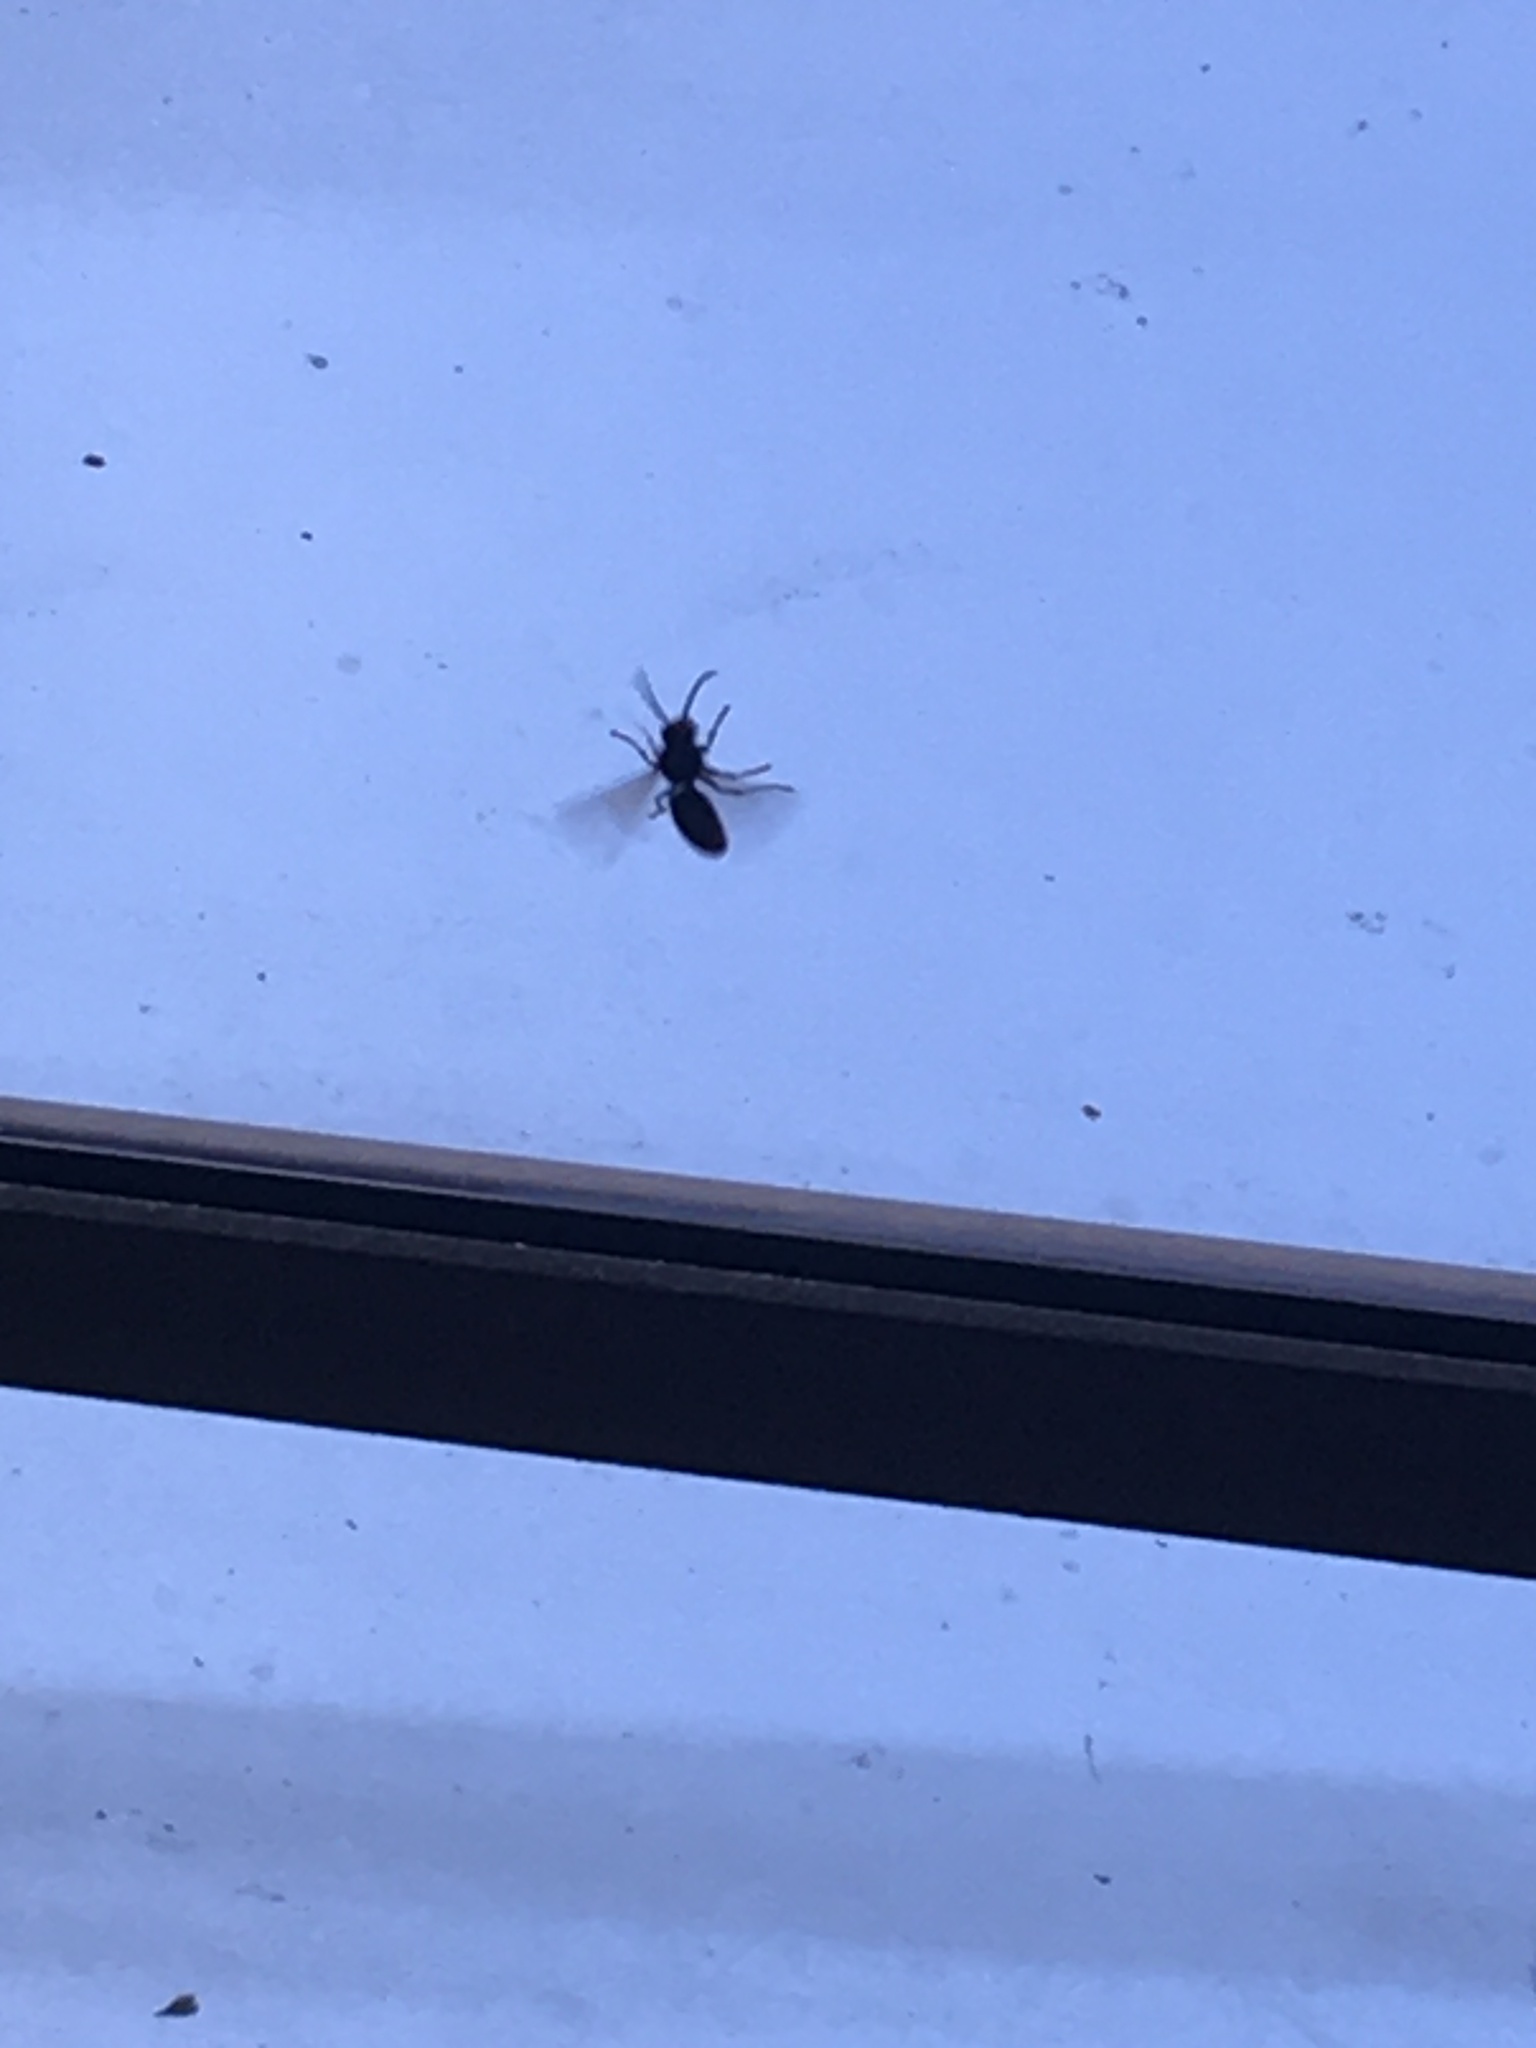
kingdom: Animalia
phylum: Arthropoda
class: Insecta
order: Hymenoptera
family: Vespidae
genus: Vespa
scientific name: Vespa velutina
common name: Asian hornet
